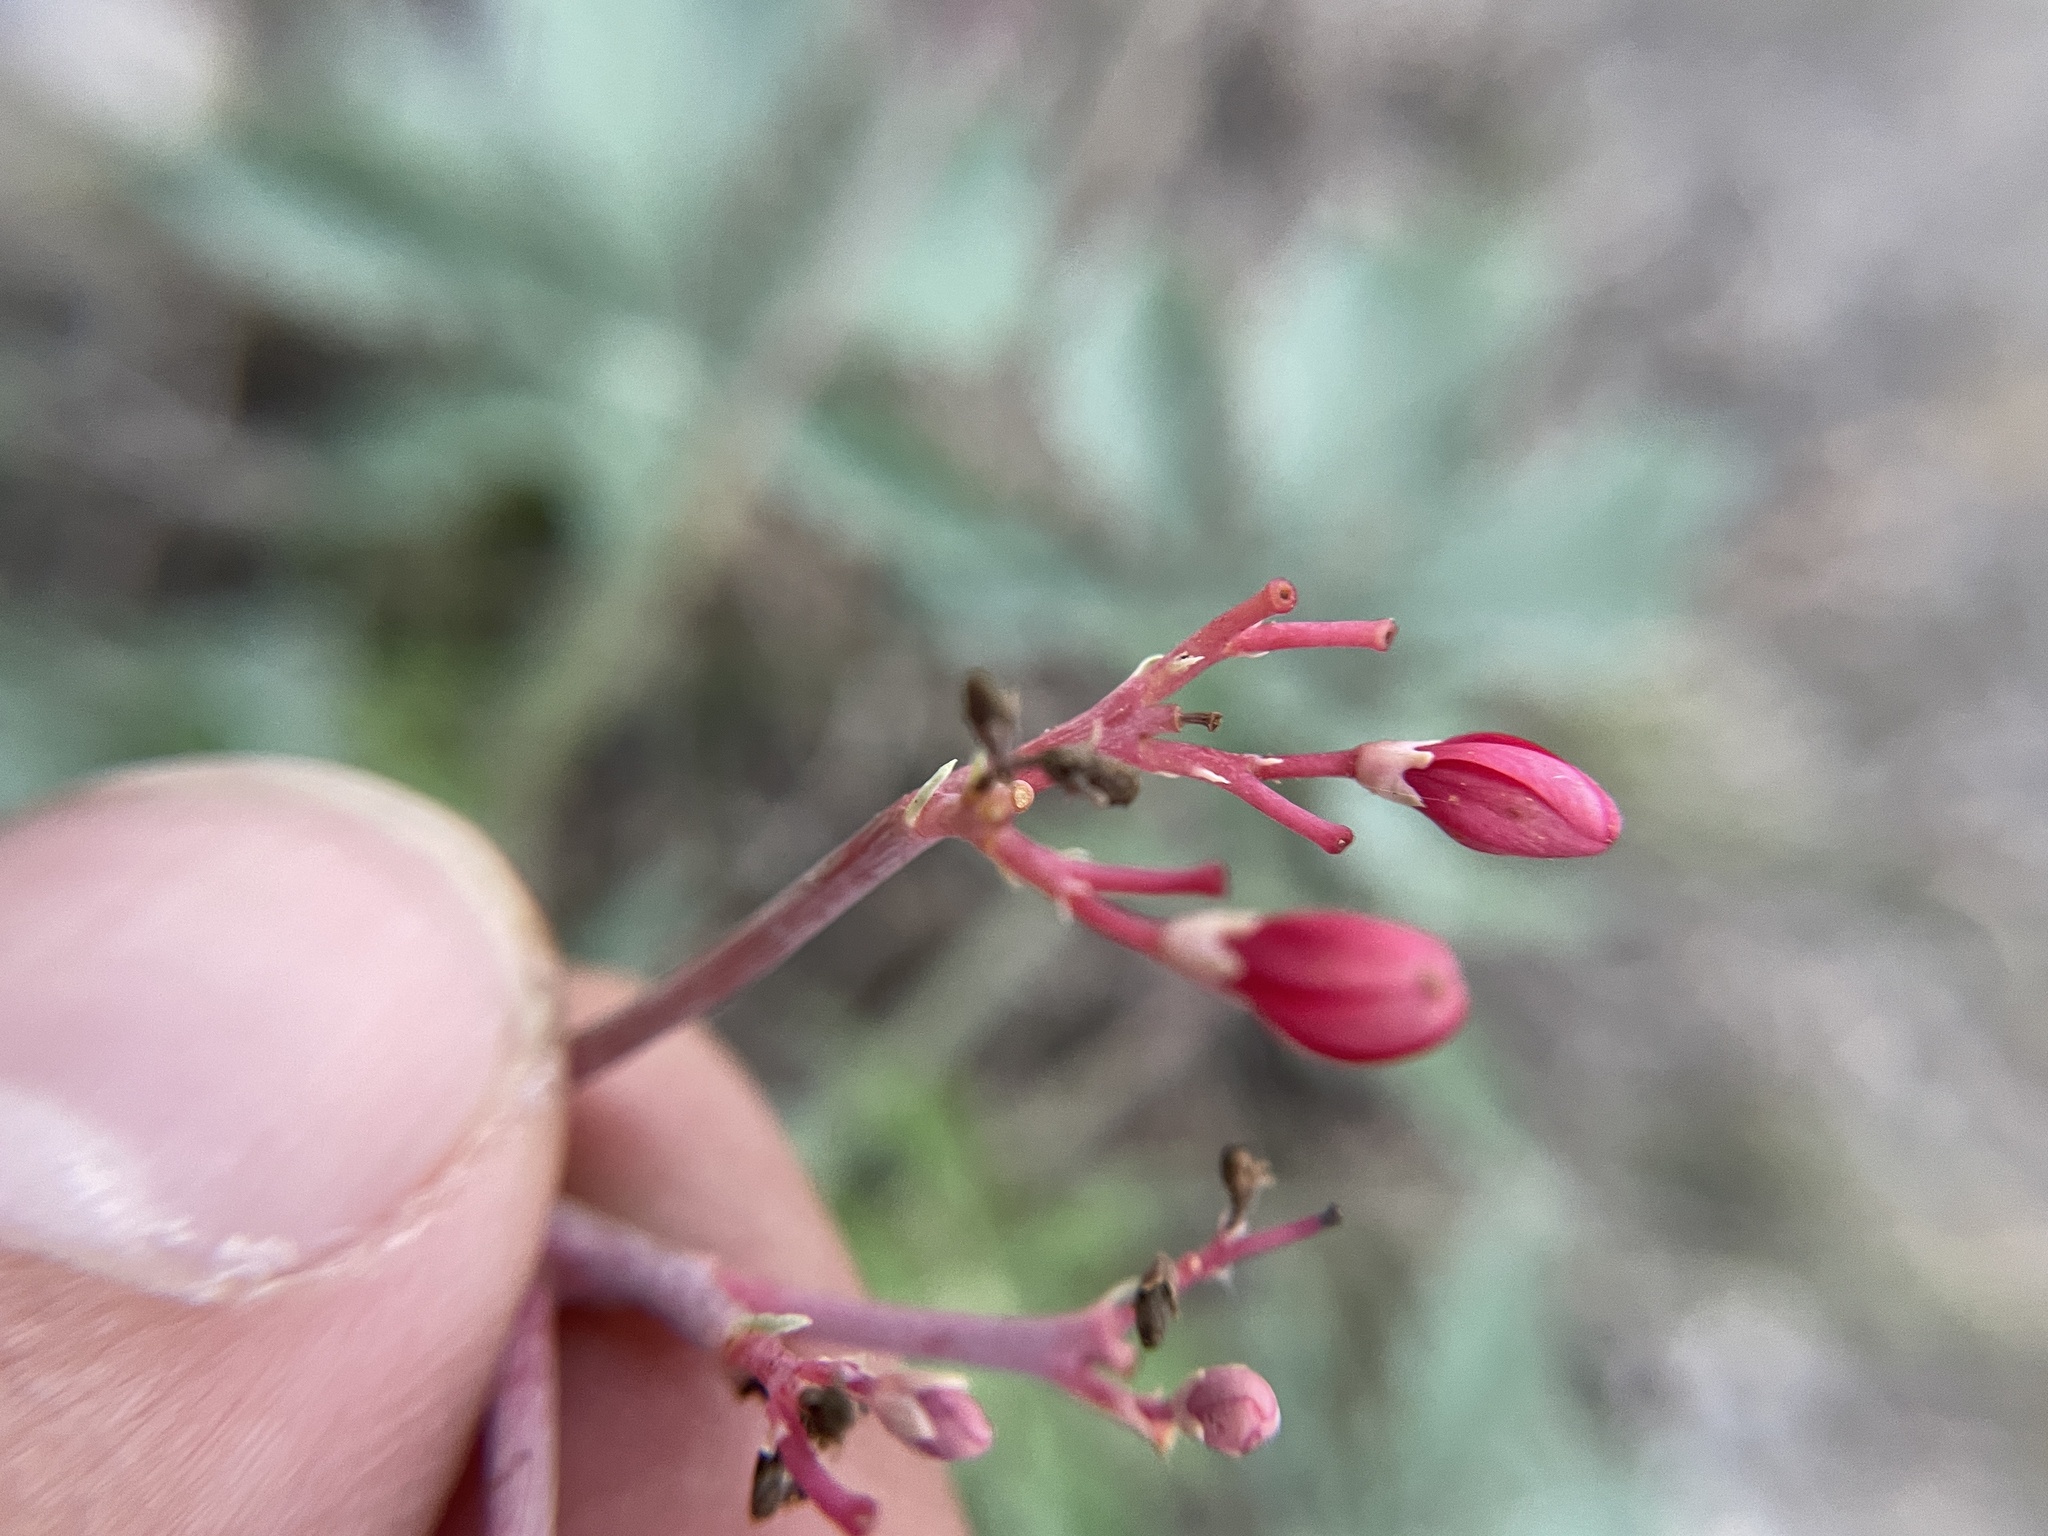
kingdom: Plantae
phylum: Tracheophyta
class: Magnoliopsida
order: Malpighiales
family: Euphorbiaceae
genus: Jatropha
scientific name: Jatropha cathartica
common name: Berlander's nettlespurge
